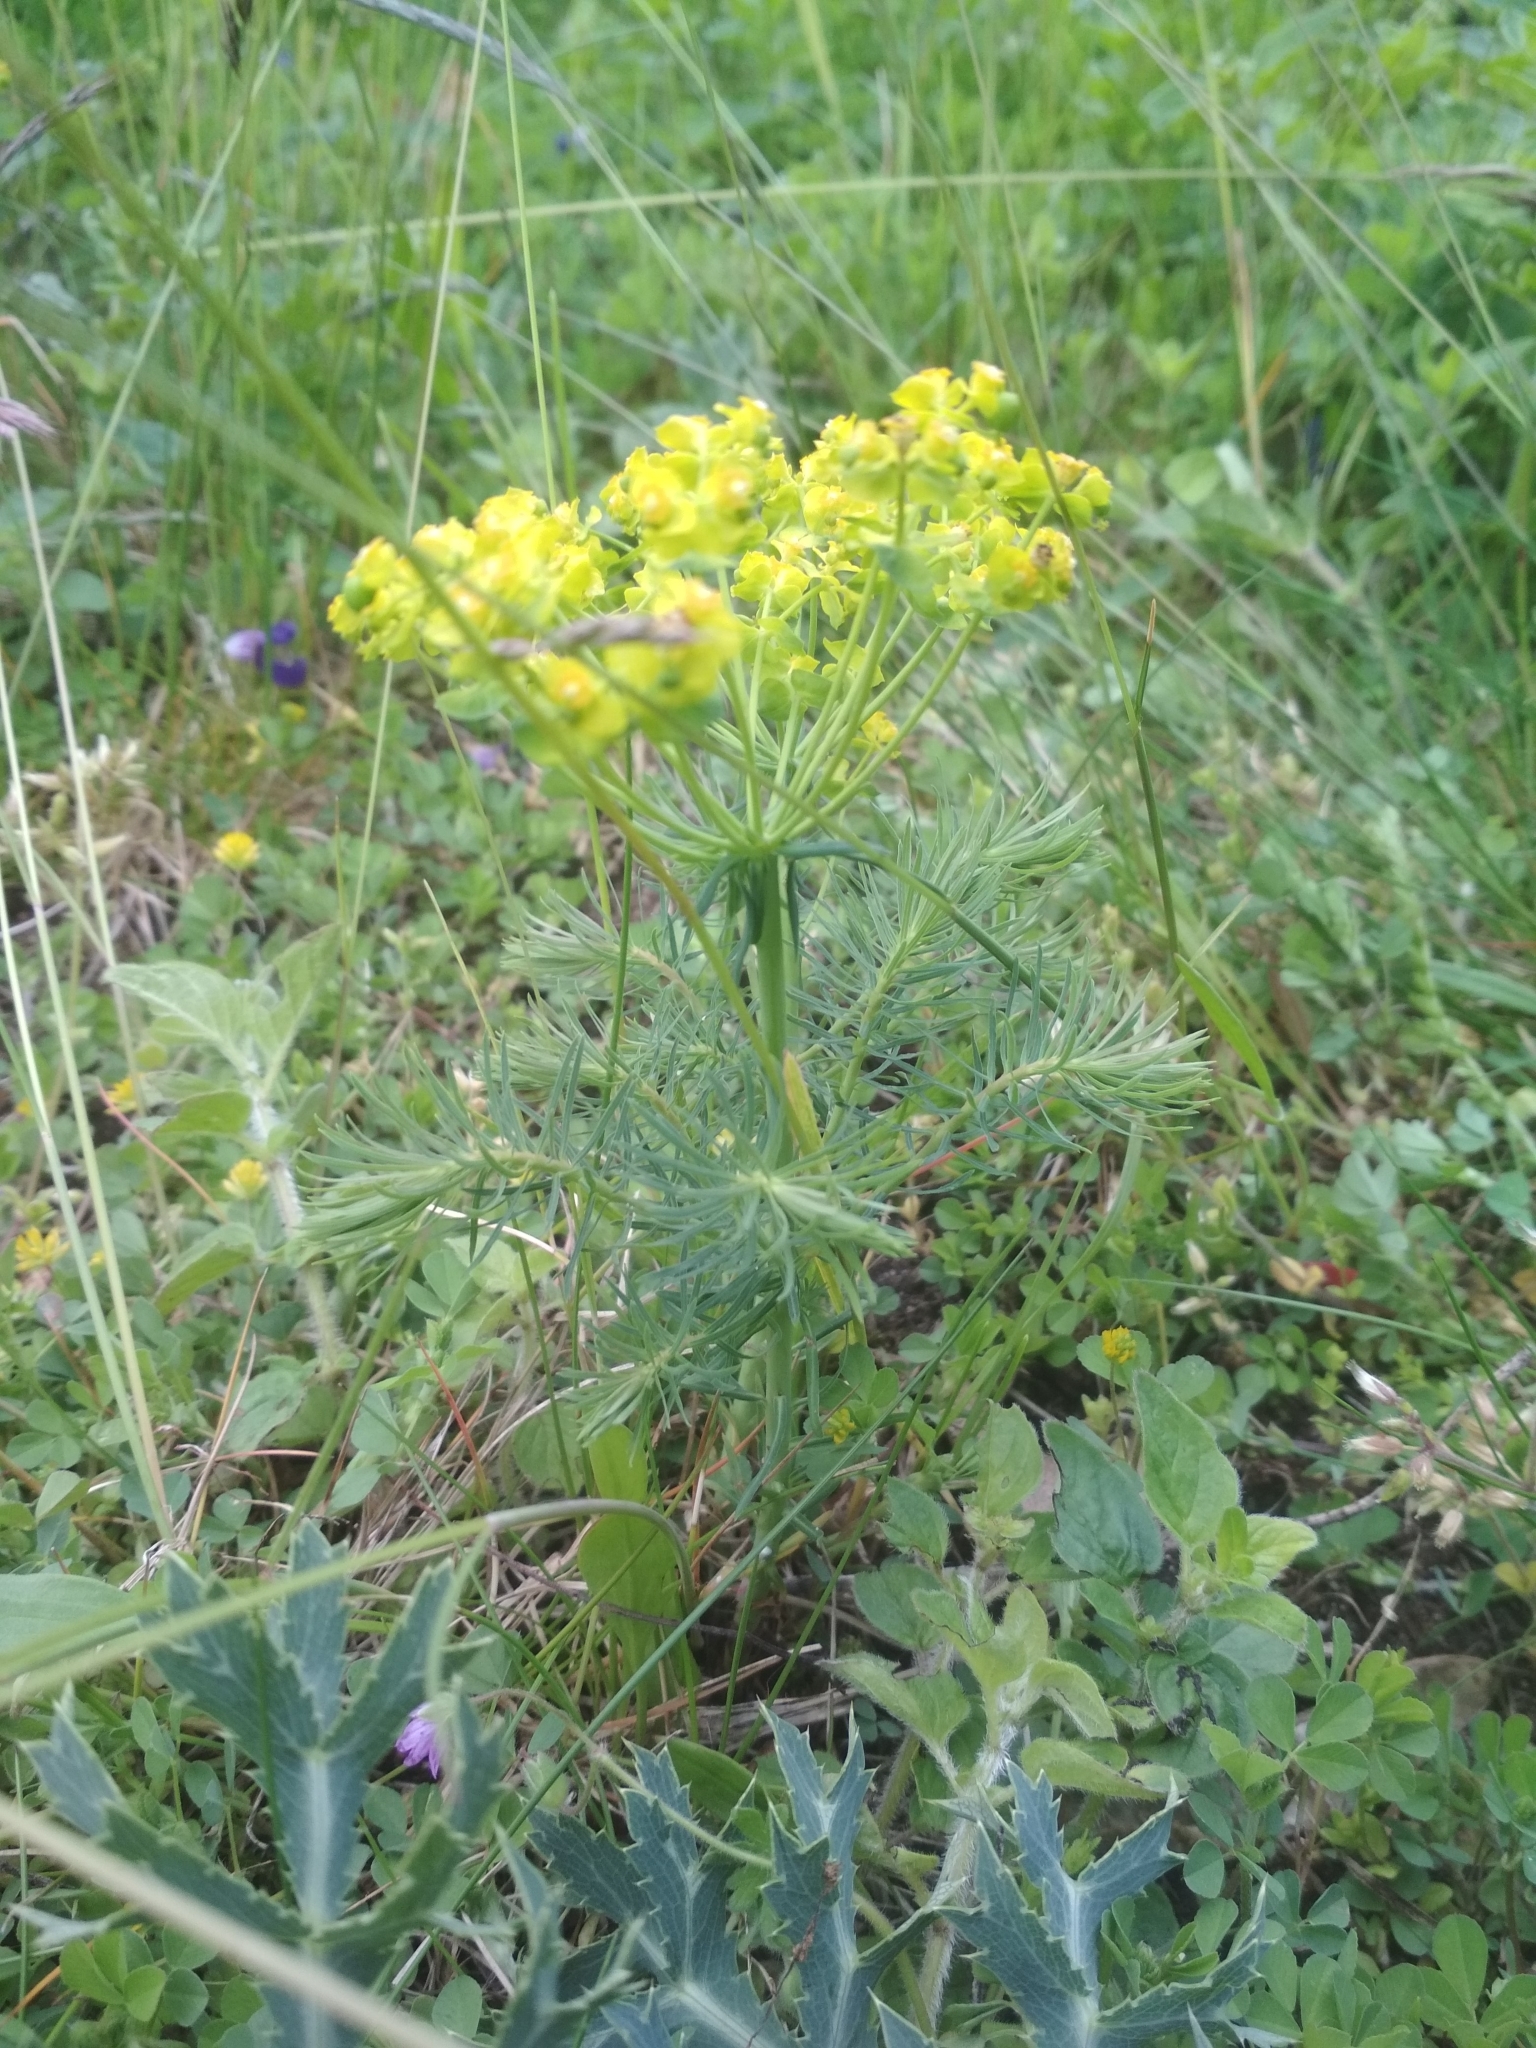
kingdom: Plantae
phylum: Tracheophyta
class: Magnoliopsida
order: Malpighiales
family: Euphorbiaceae
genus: Euphorbia
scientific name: Euphorbia cyparissias
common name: Cypress spurge
